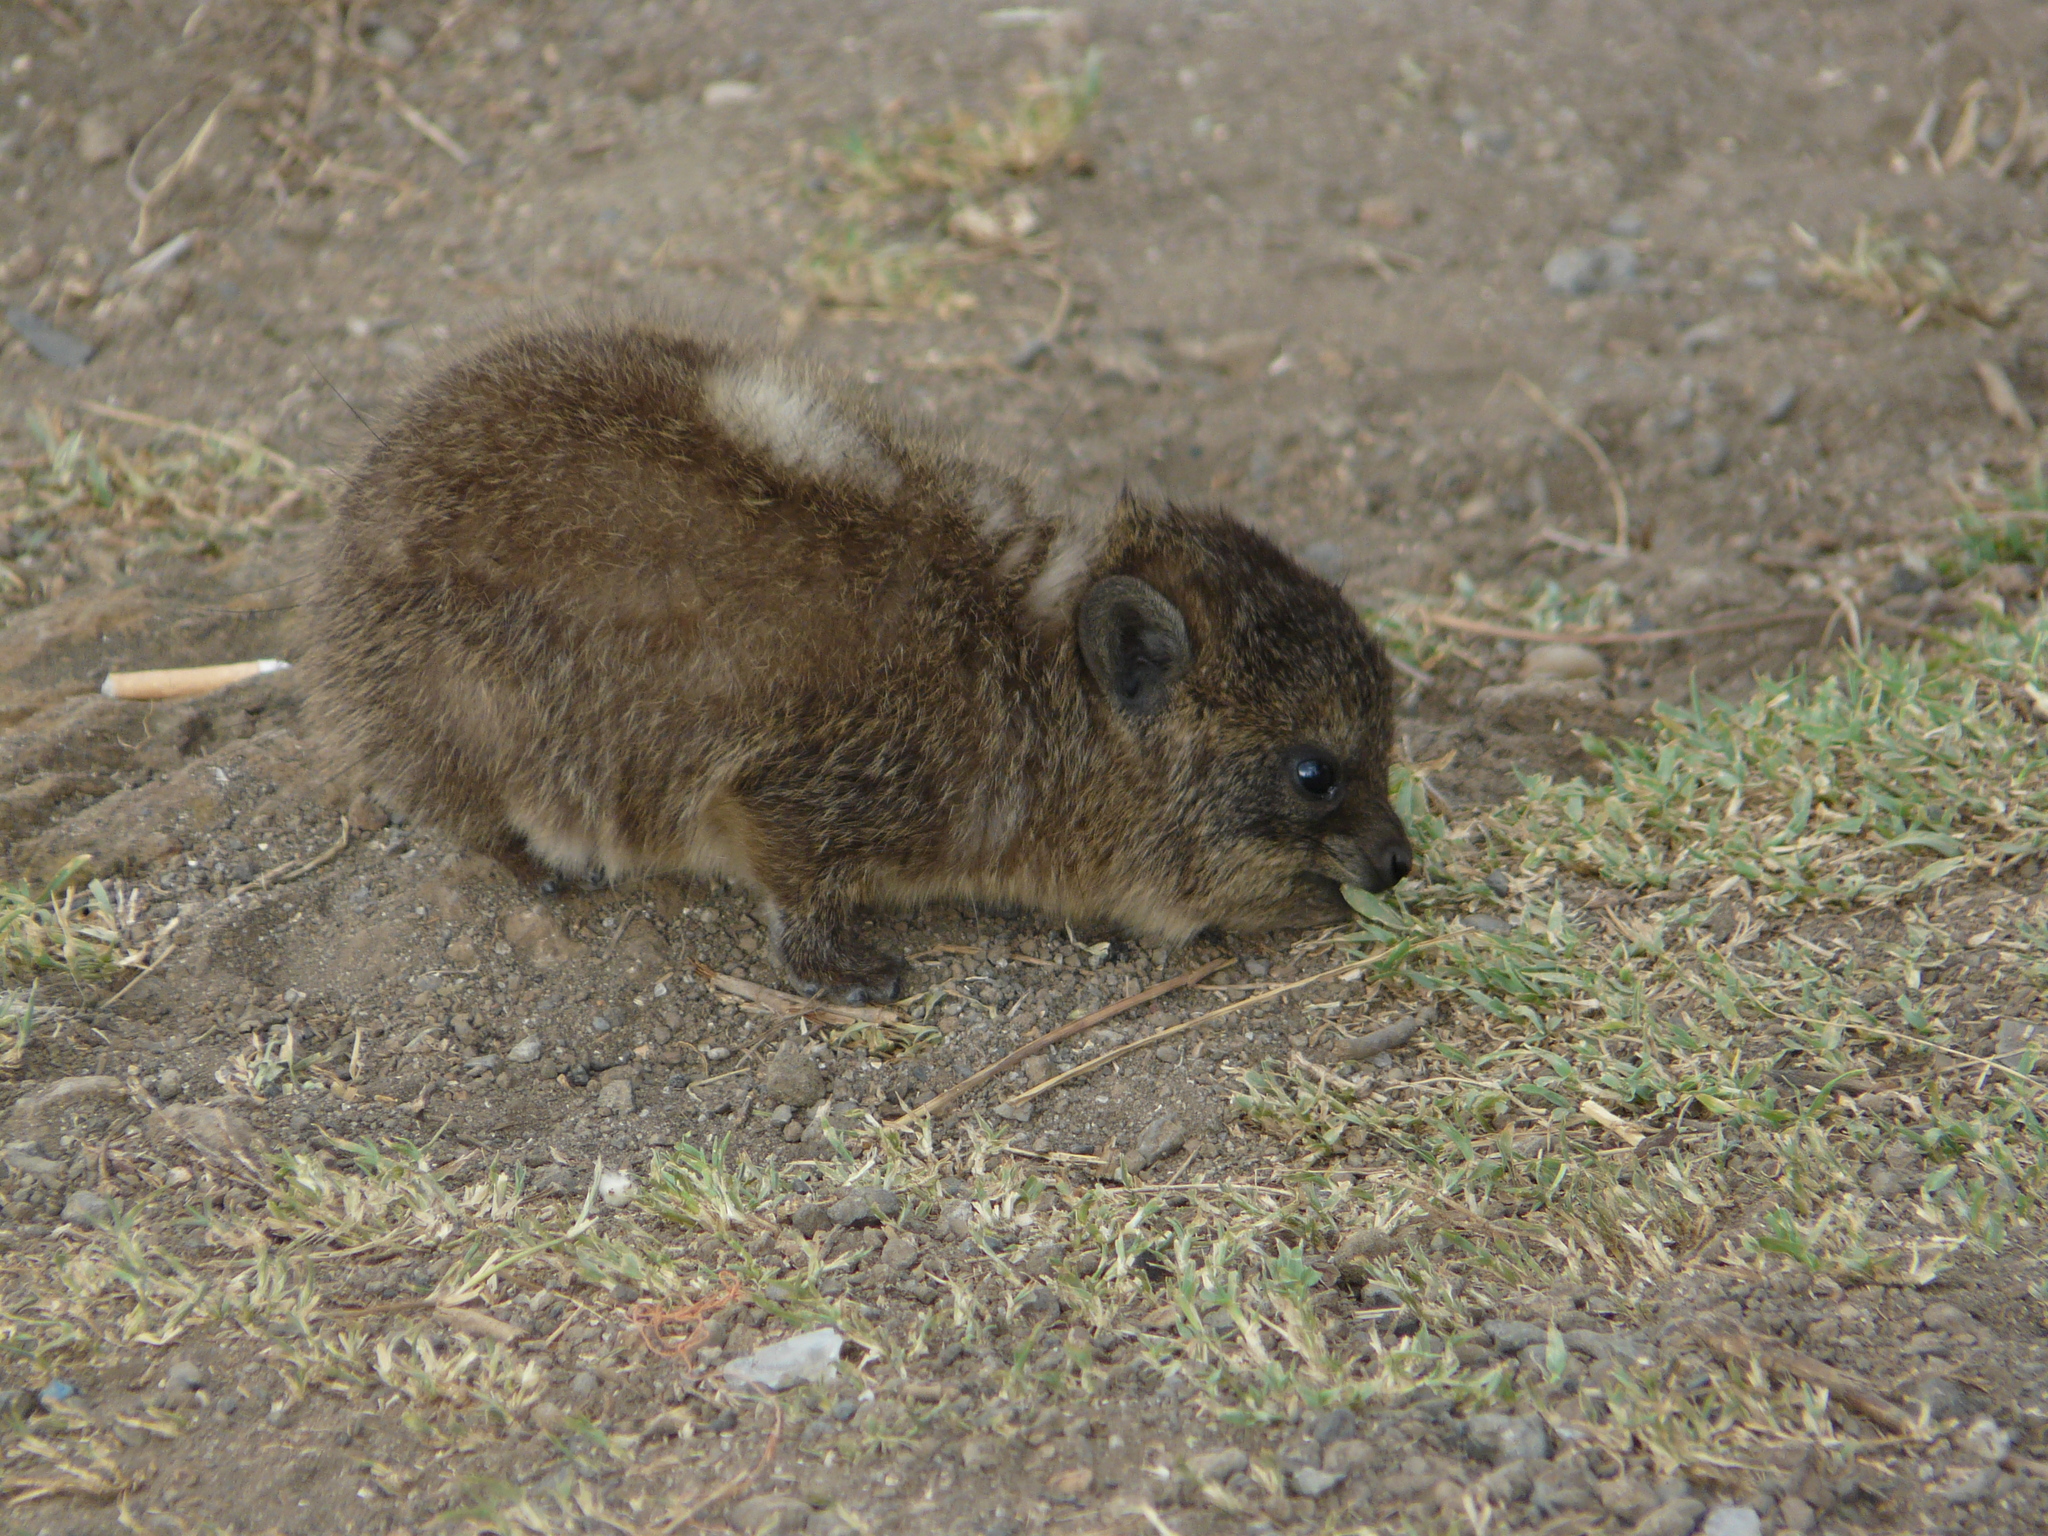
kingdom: Animalia
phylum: Chordata
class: Mammalia
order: Hyracoidea
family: Procaviidae
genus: Procavia
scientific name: Procavia capensis
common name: Rock hyrax
